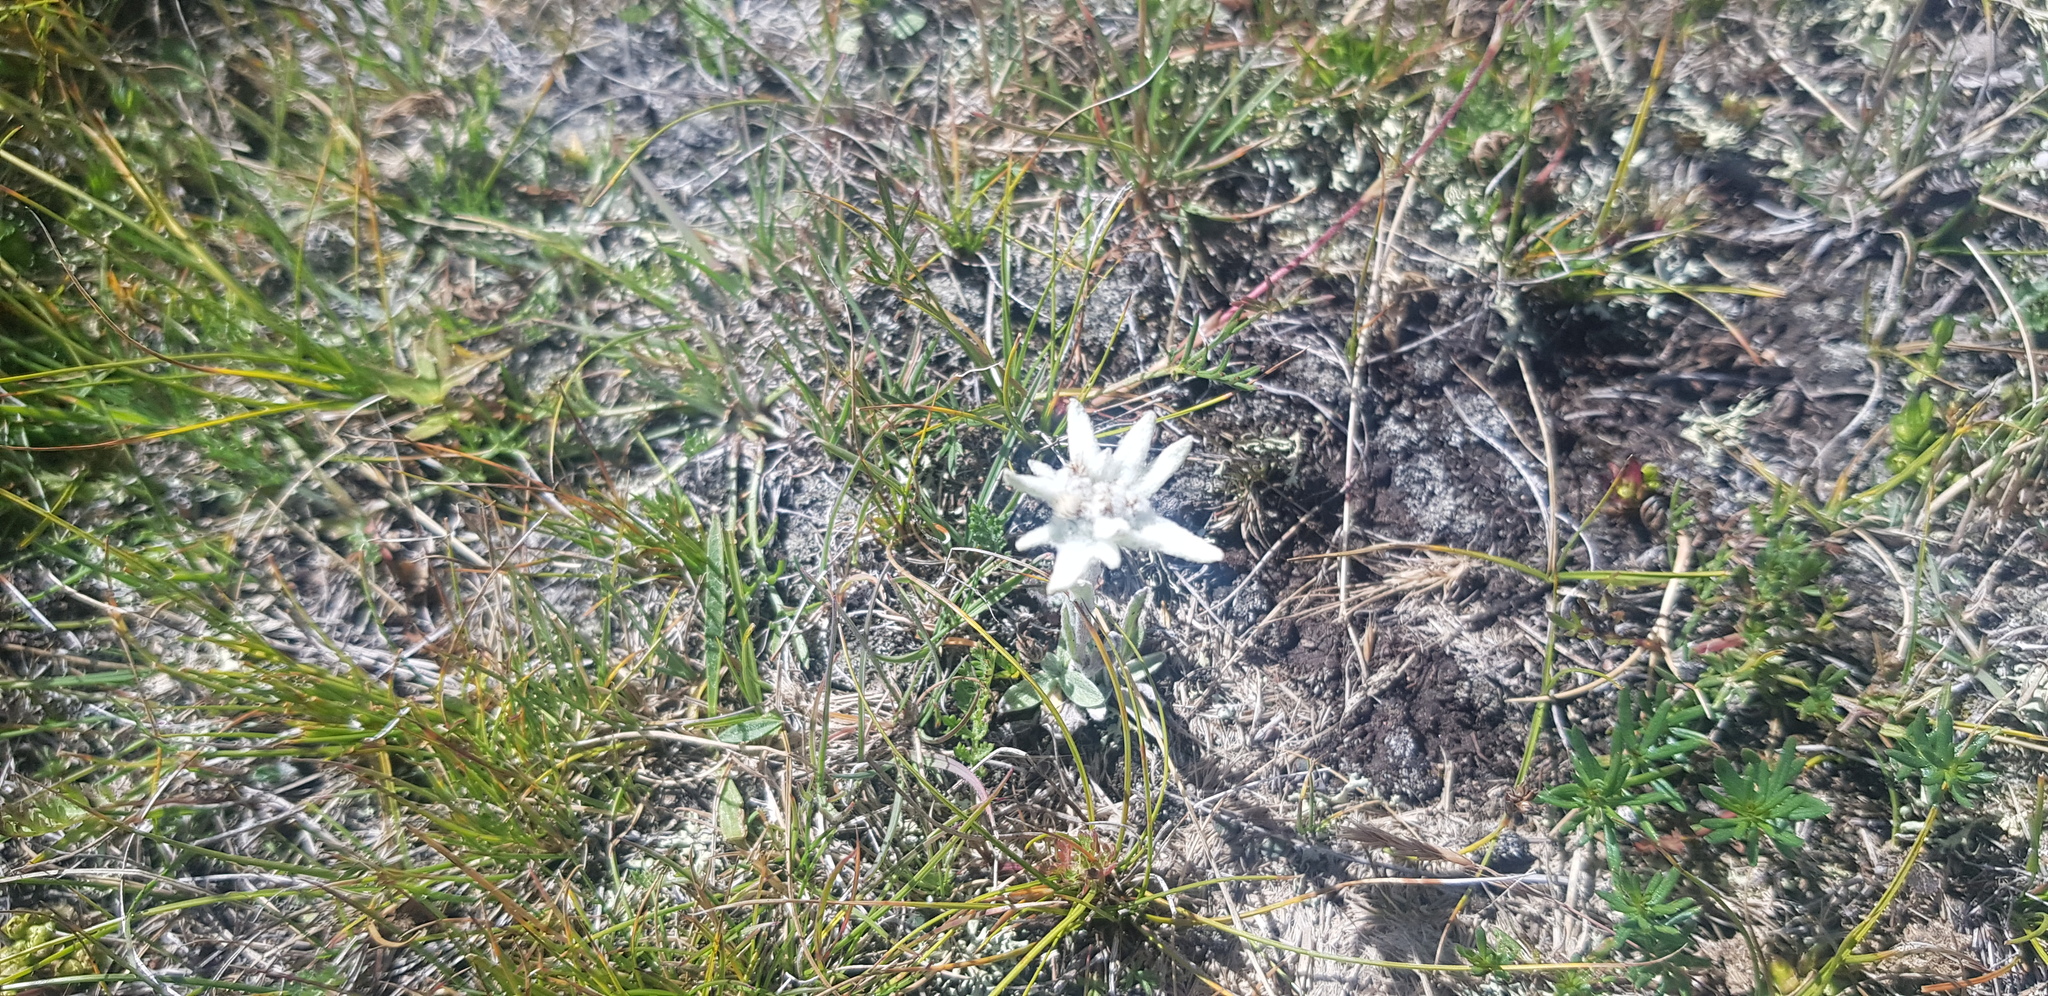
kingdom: Plantae
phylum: Tracheophyta
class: Magnoliopsida
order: Asterales
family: Asteraceae
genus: Leontopodium
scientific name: Leontopodium leontopodioides
